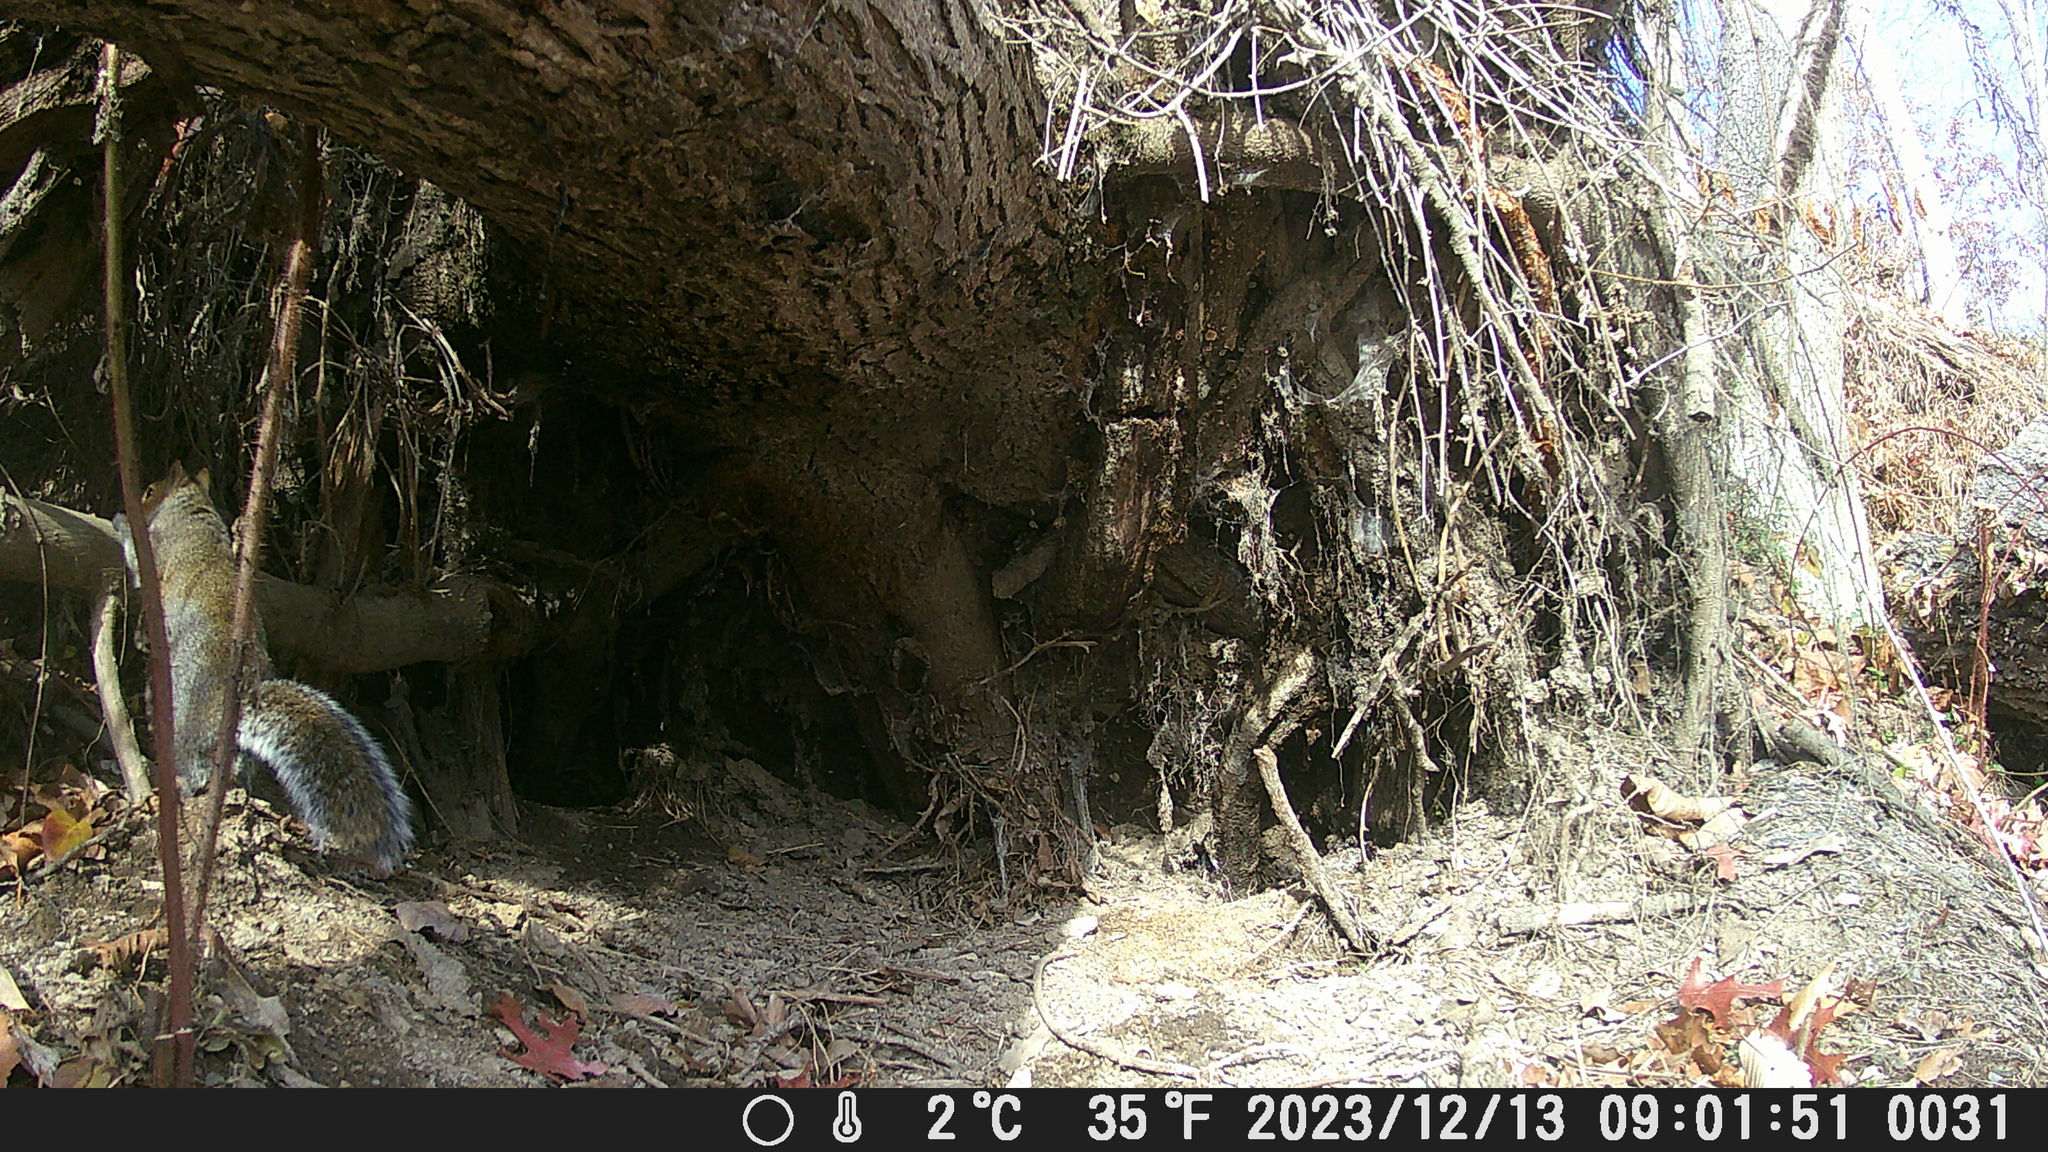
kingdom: Animalia
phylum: Chordata
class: Mammalia
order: Rodentia
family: Sciuridae
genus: Sciurus
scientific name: Sciurus carolinensis
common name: Eastern gray squirrel
